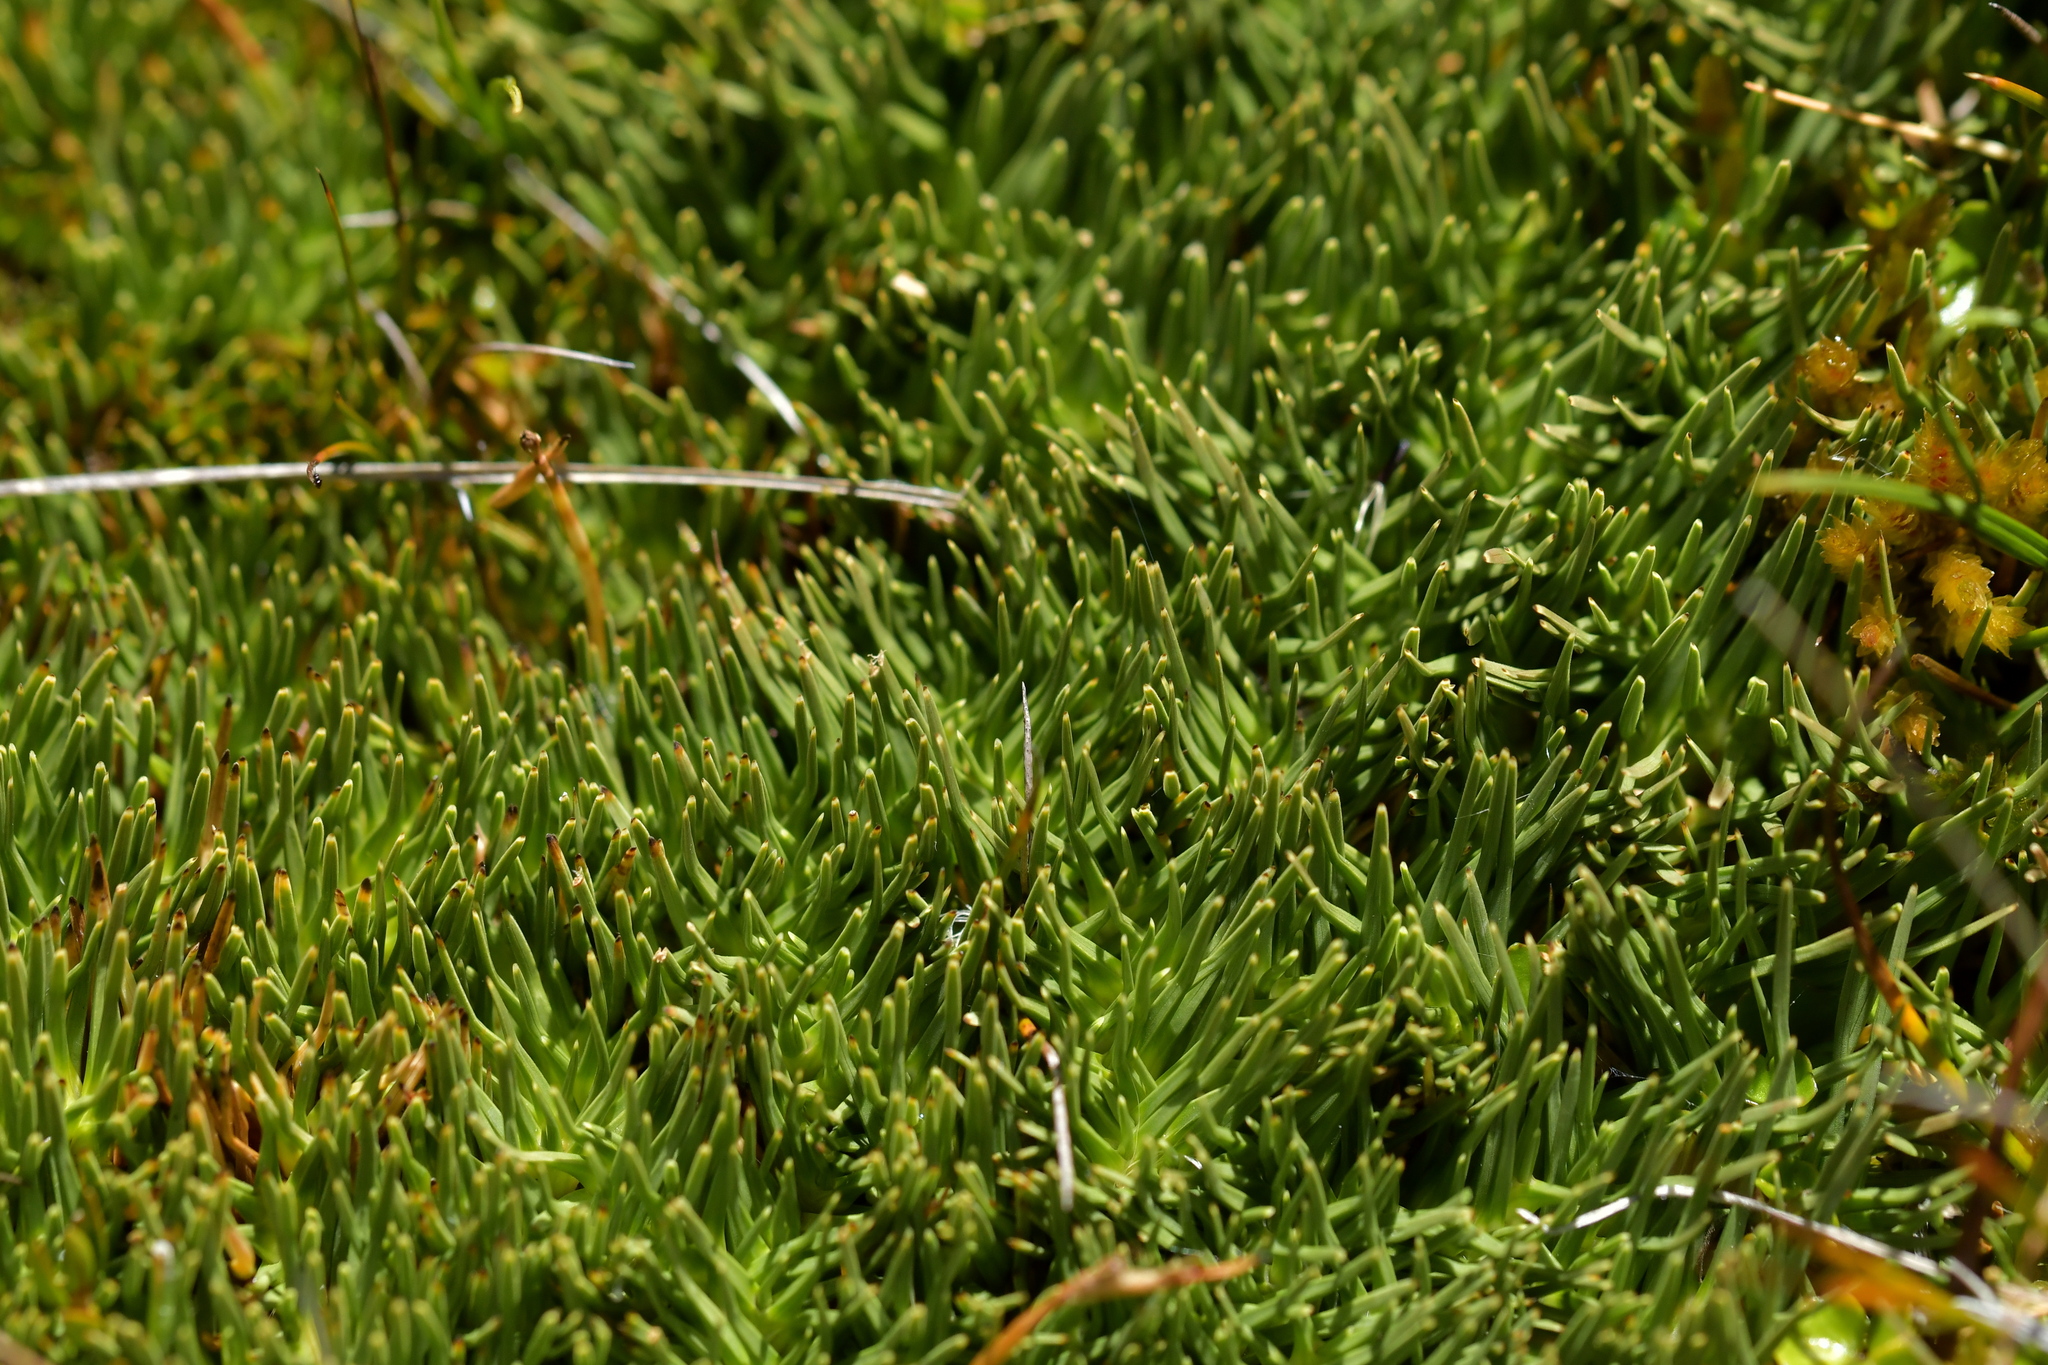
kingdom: Plantae
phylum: Tracheophyta
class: Liliopsida
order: Poales
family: Cyperaceae
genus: Oreobolus
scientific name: Oreobolus pectinatus
